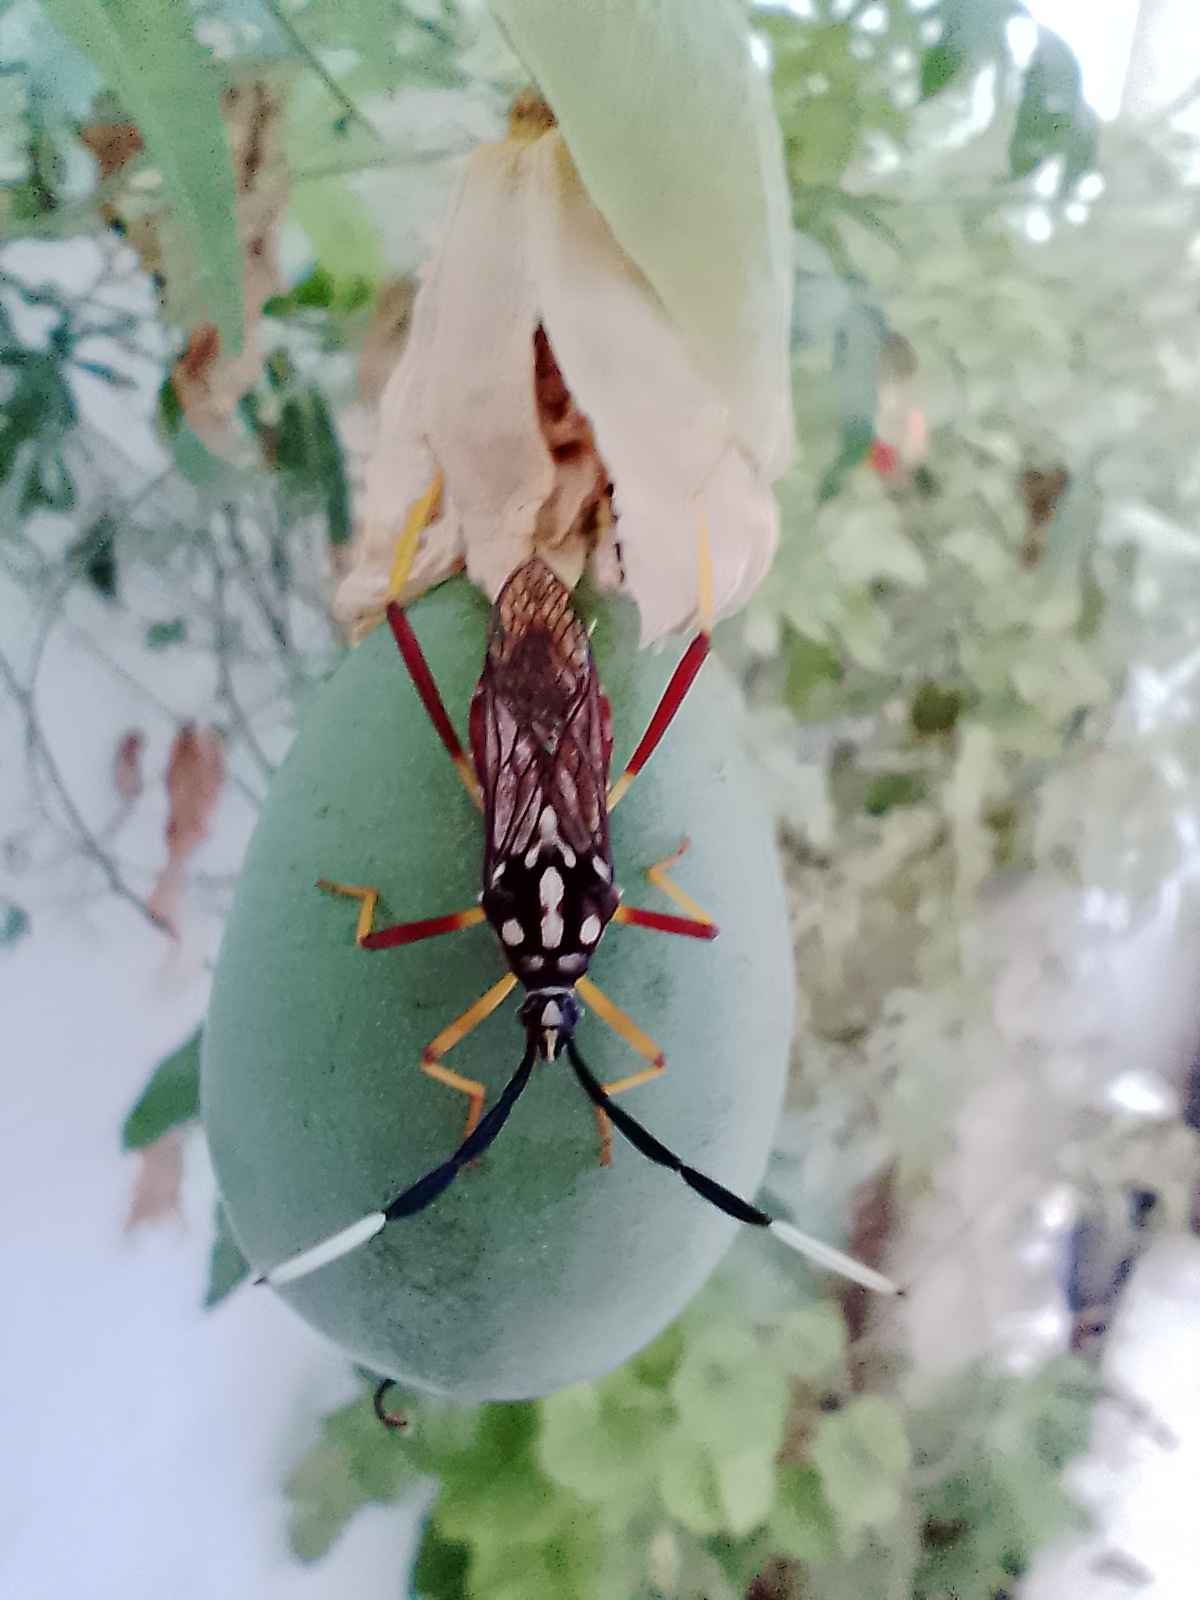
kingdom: Animalia
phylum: Arthropoda
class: Insecta
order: Hemiptera
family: Coreidae
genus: Holhymenia
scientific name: Holhymenia histrio
